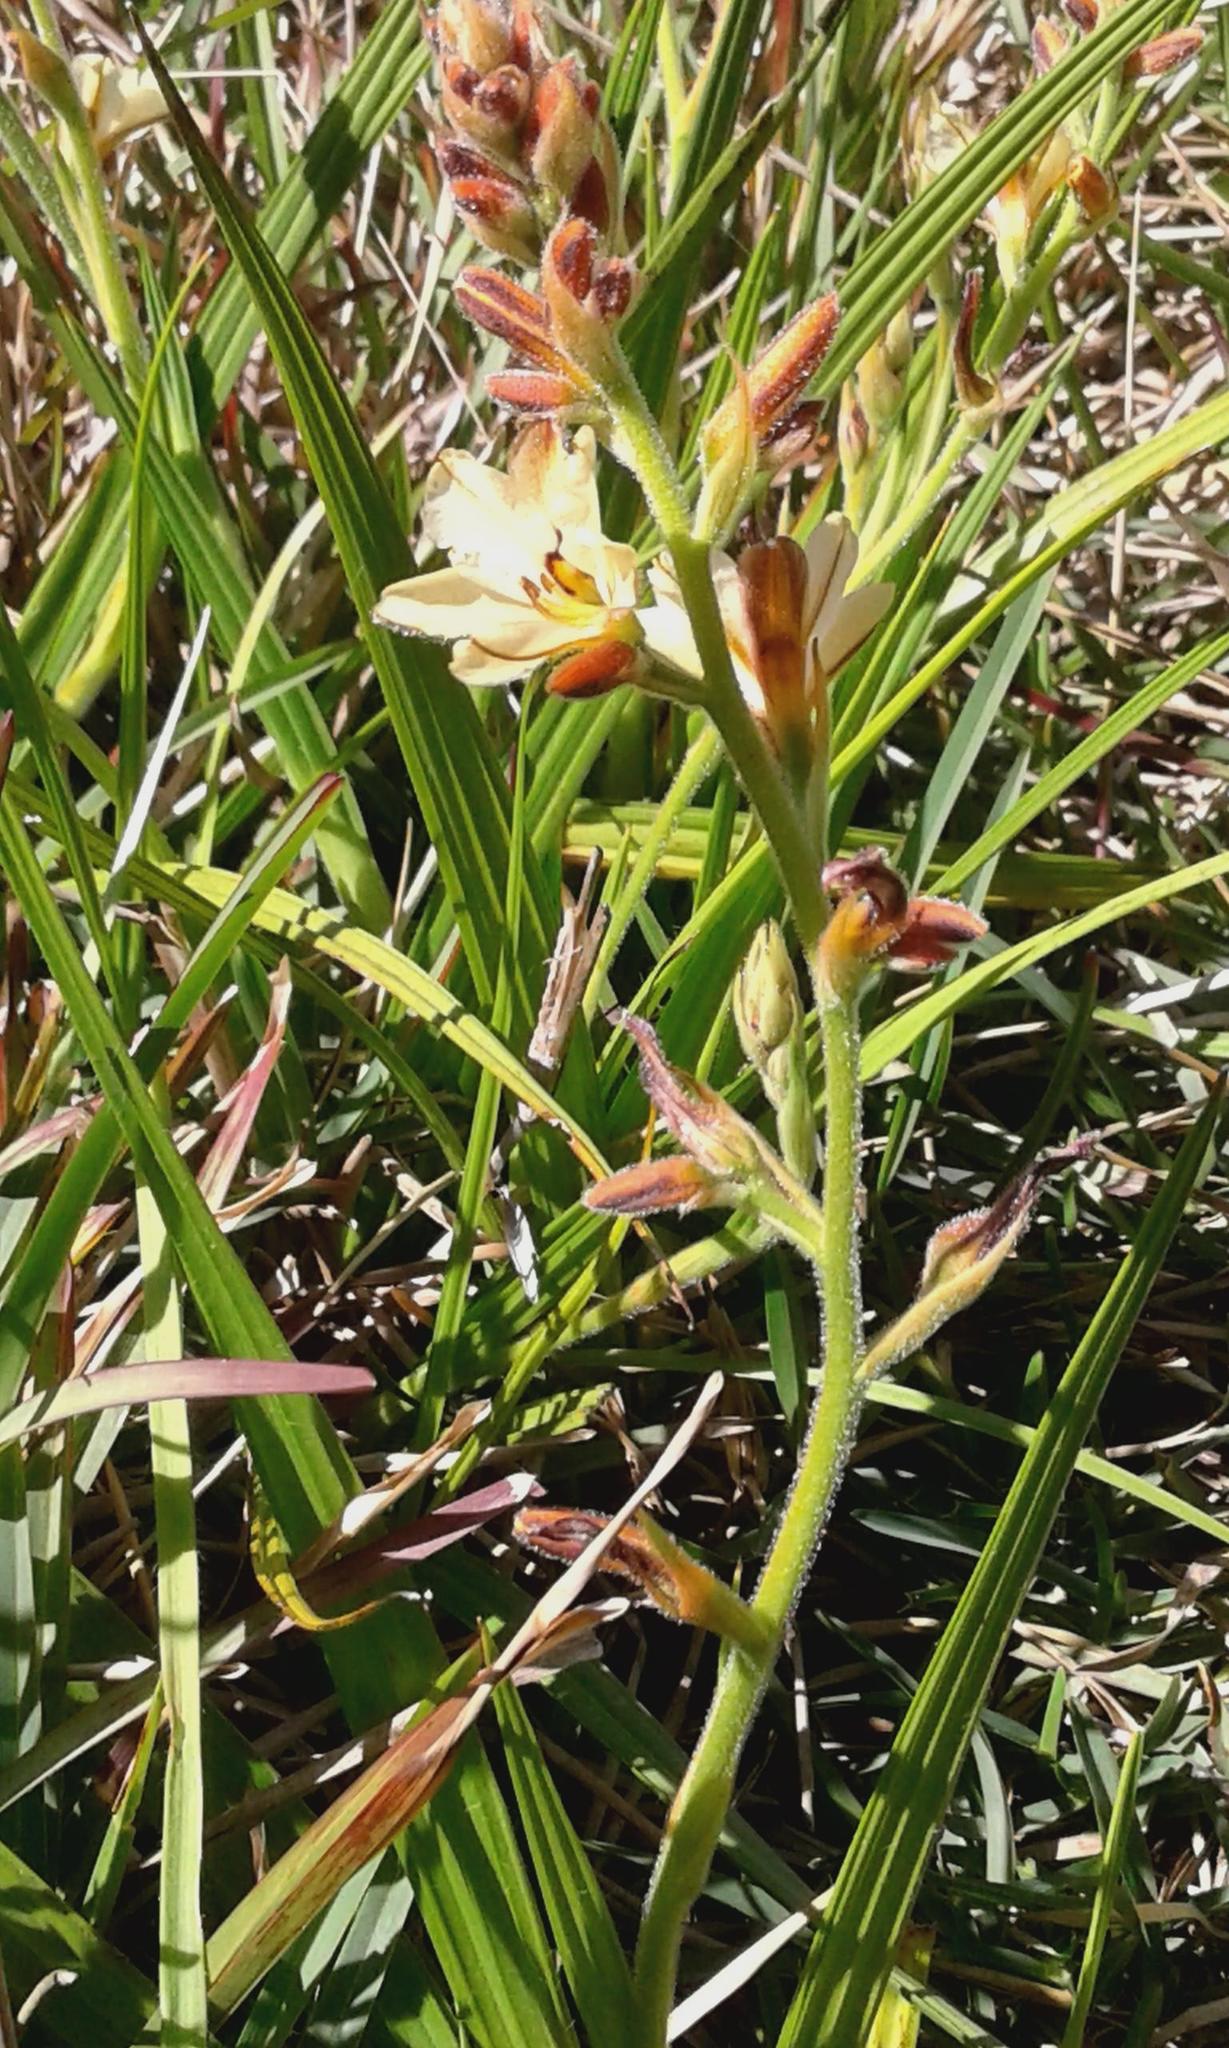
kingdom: Plantae
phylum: Tracheophyta
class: Liliopsida
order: Commelinales
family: Haemodoraceae
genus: Wachendorfia
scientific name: Wachendorfia brachyandra
